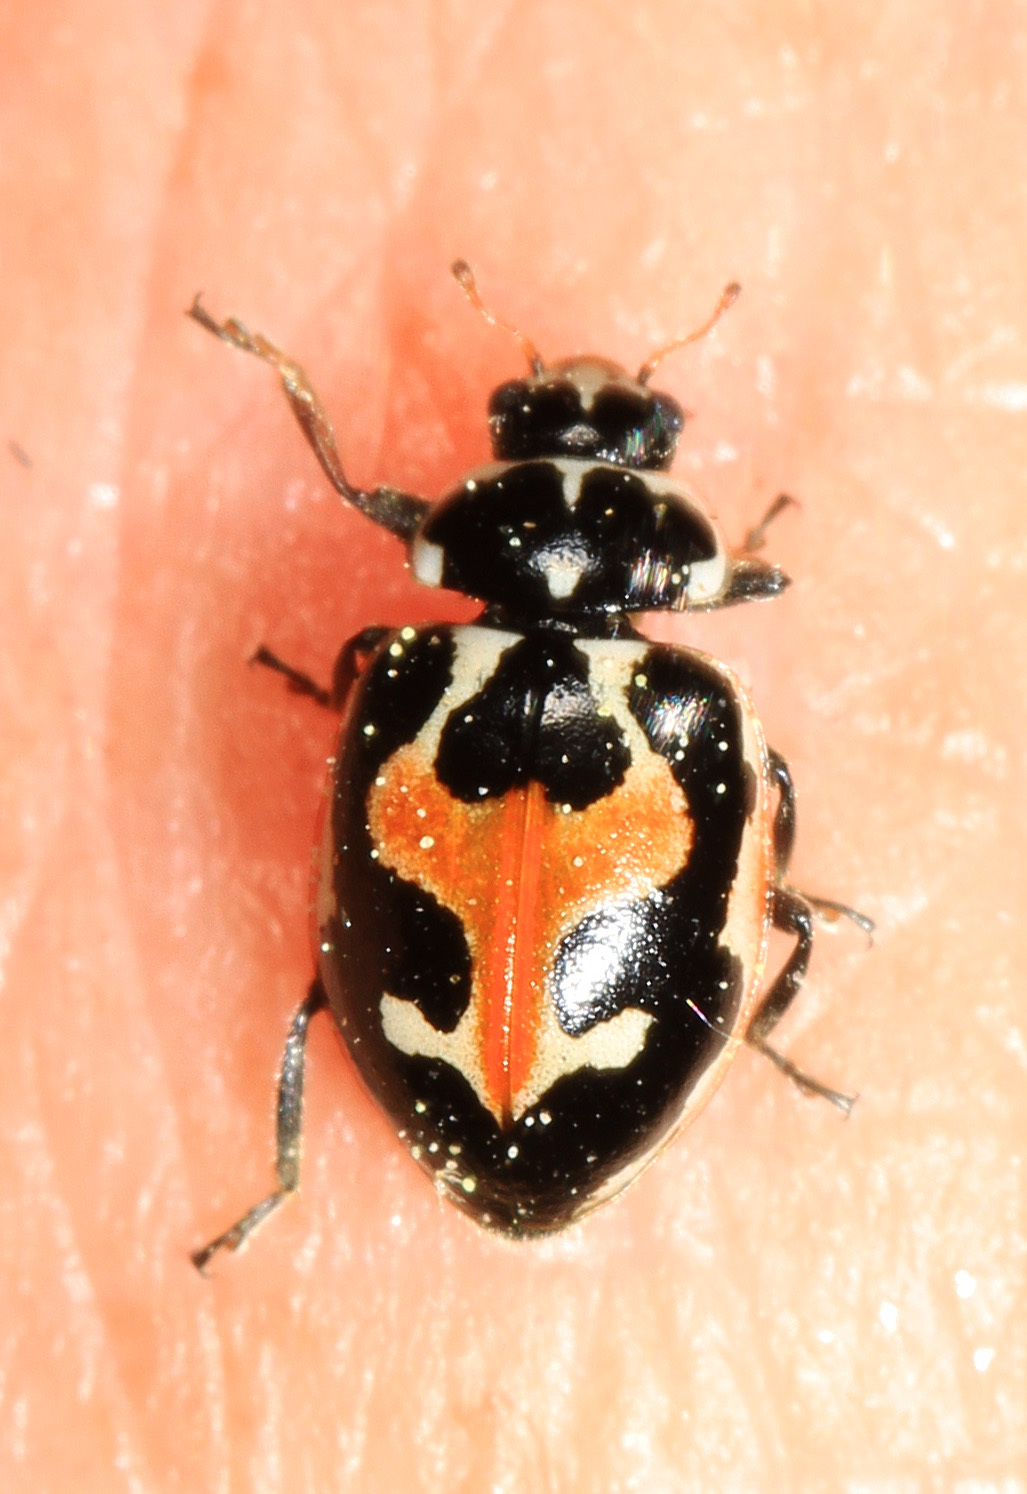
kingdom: Animalia
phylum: Arthropoda
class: Insecta
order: Coleoptera
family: Coccinellidae
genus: Hippodamia
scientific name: Hippodamia apicalis
